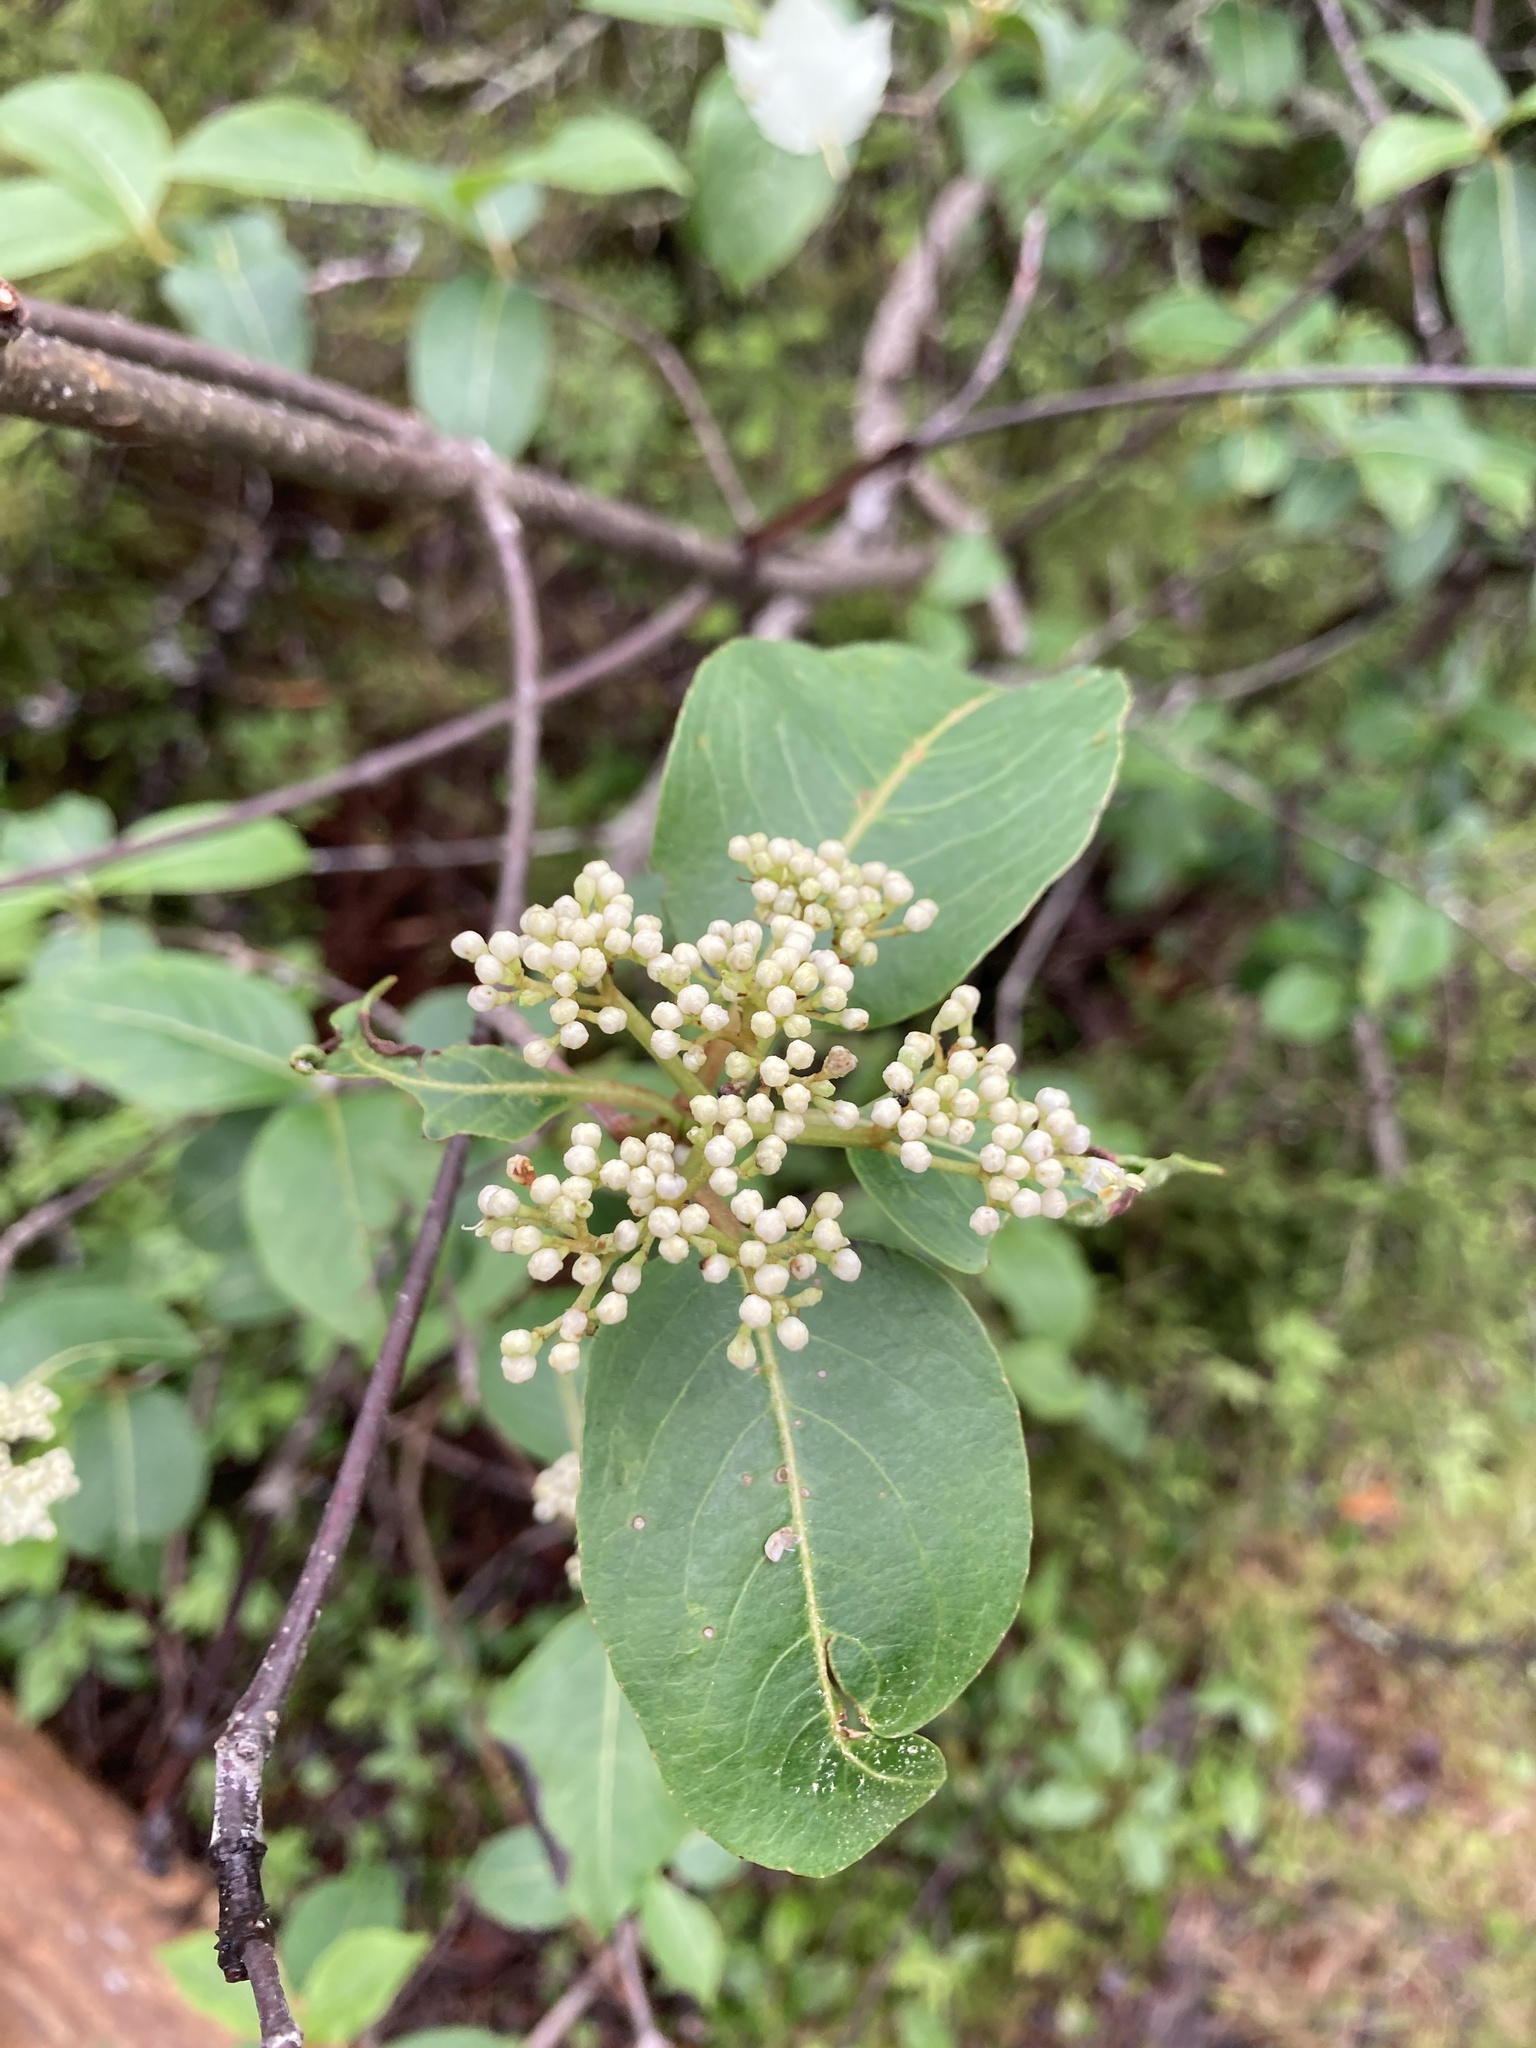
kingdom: Plantae
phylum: Tracheophyta
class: Magnoliopsida
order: Dipsacales
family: Viburnaceae
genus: Viburnum
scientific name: Viburnum cassinoides
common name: Swamp haw
